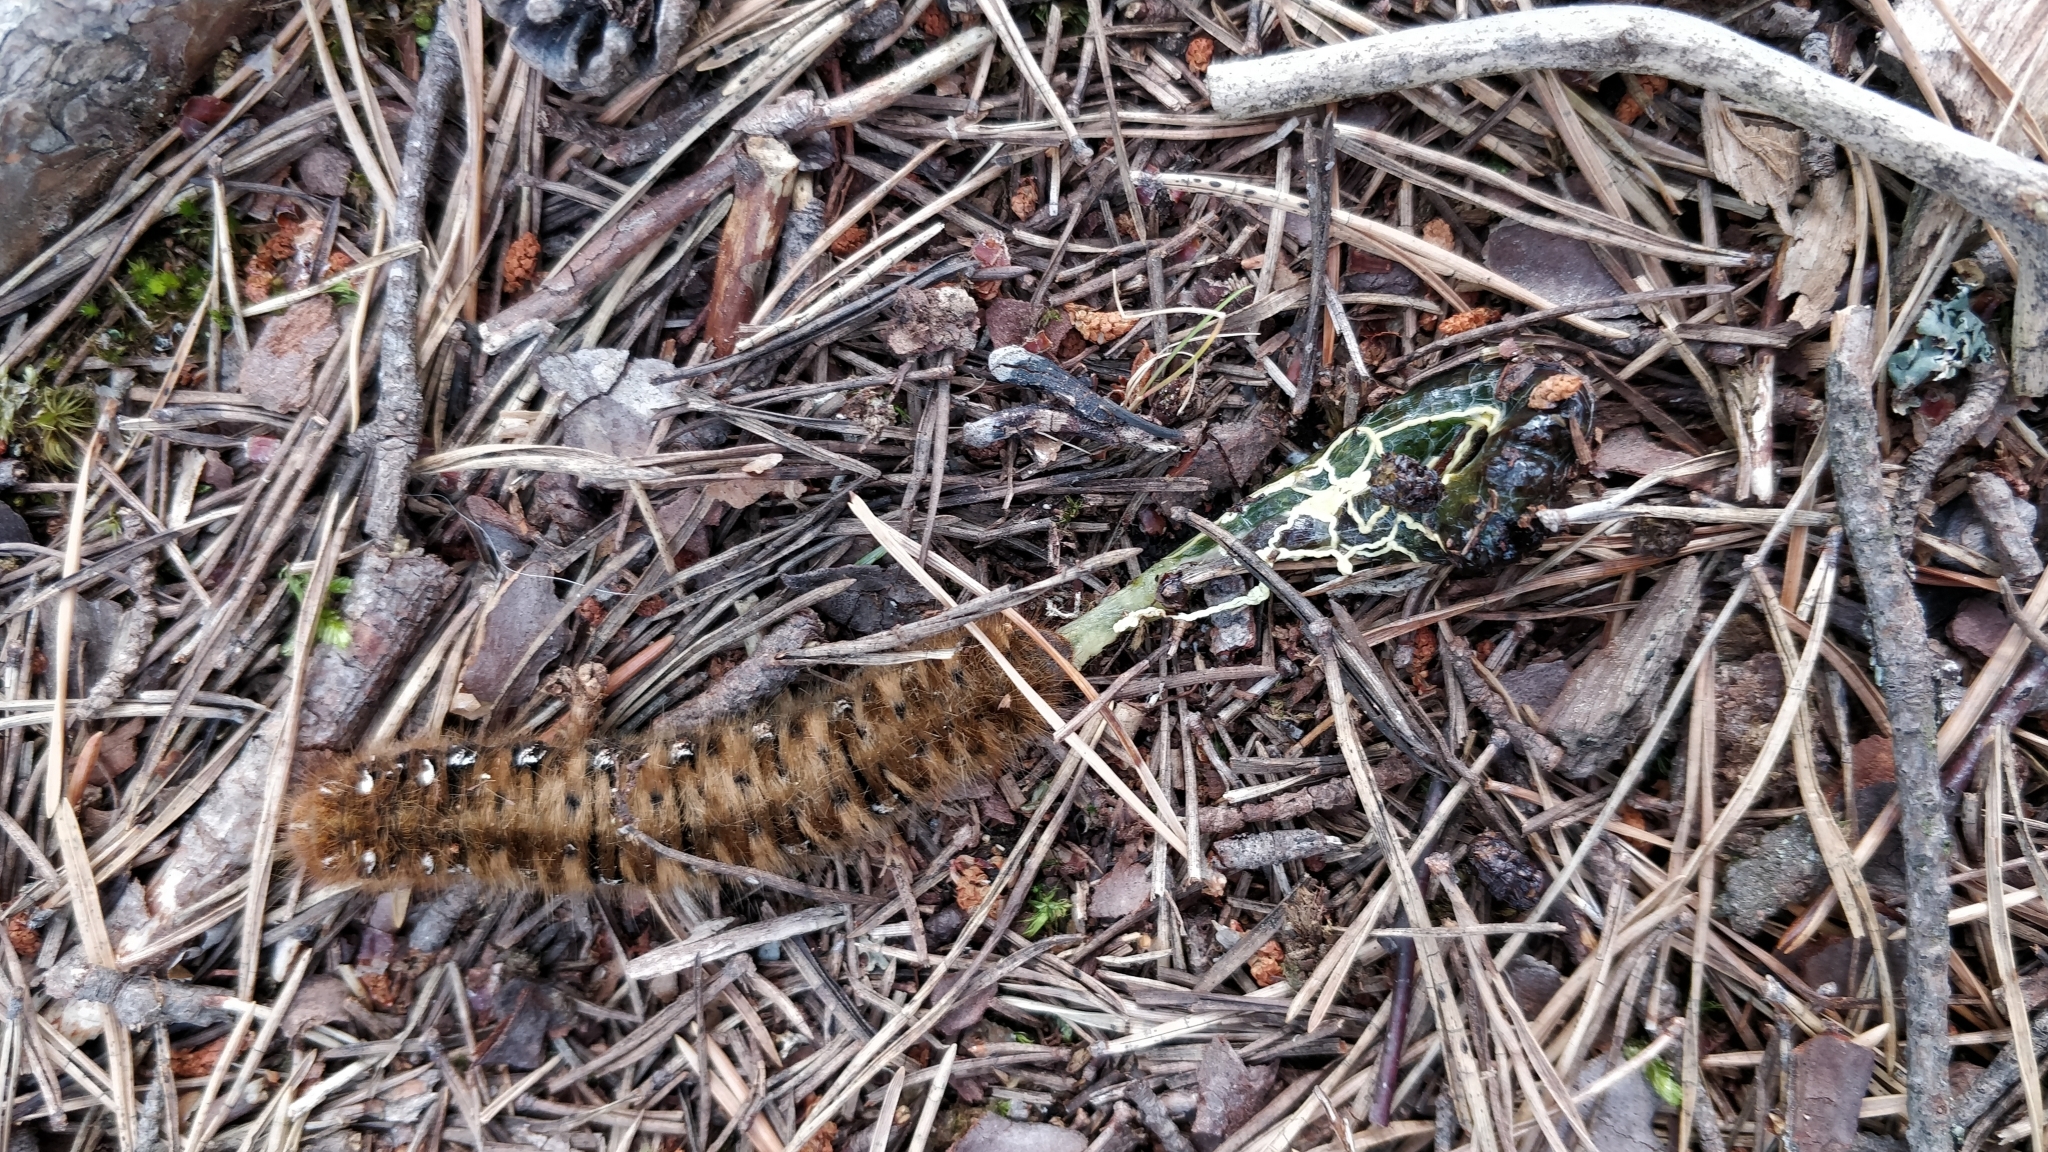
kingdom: Animalia
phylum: Arthropoda
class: Insecta
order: Lepidoptera
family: Lasiocampidae
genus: Lasiocampa
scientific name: Lasiocampa quercus
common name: Oak eggar
